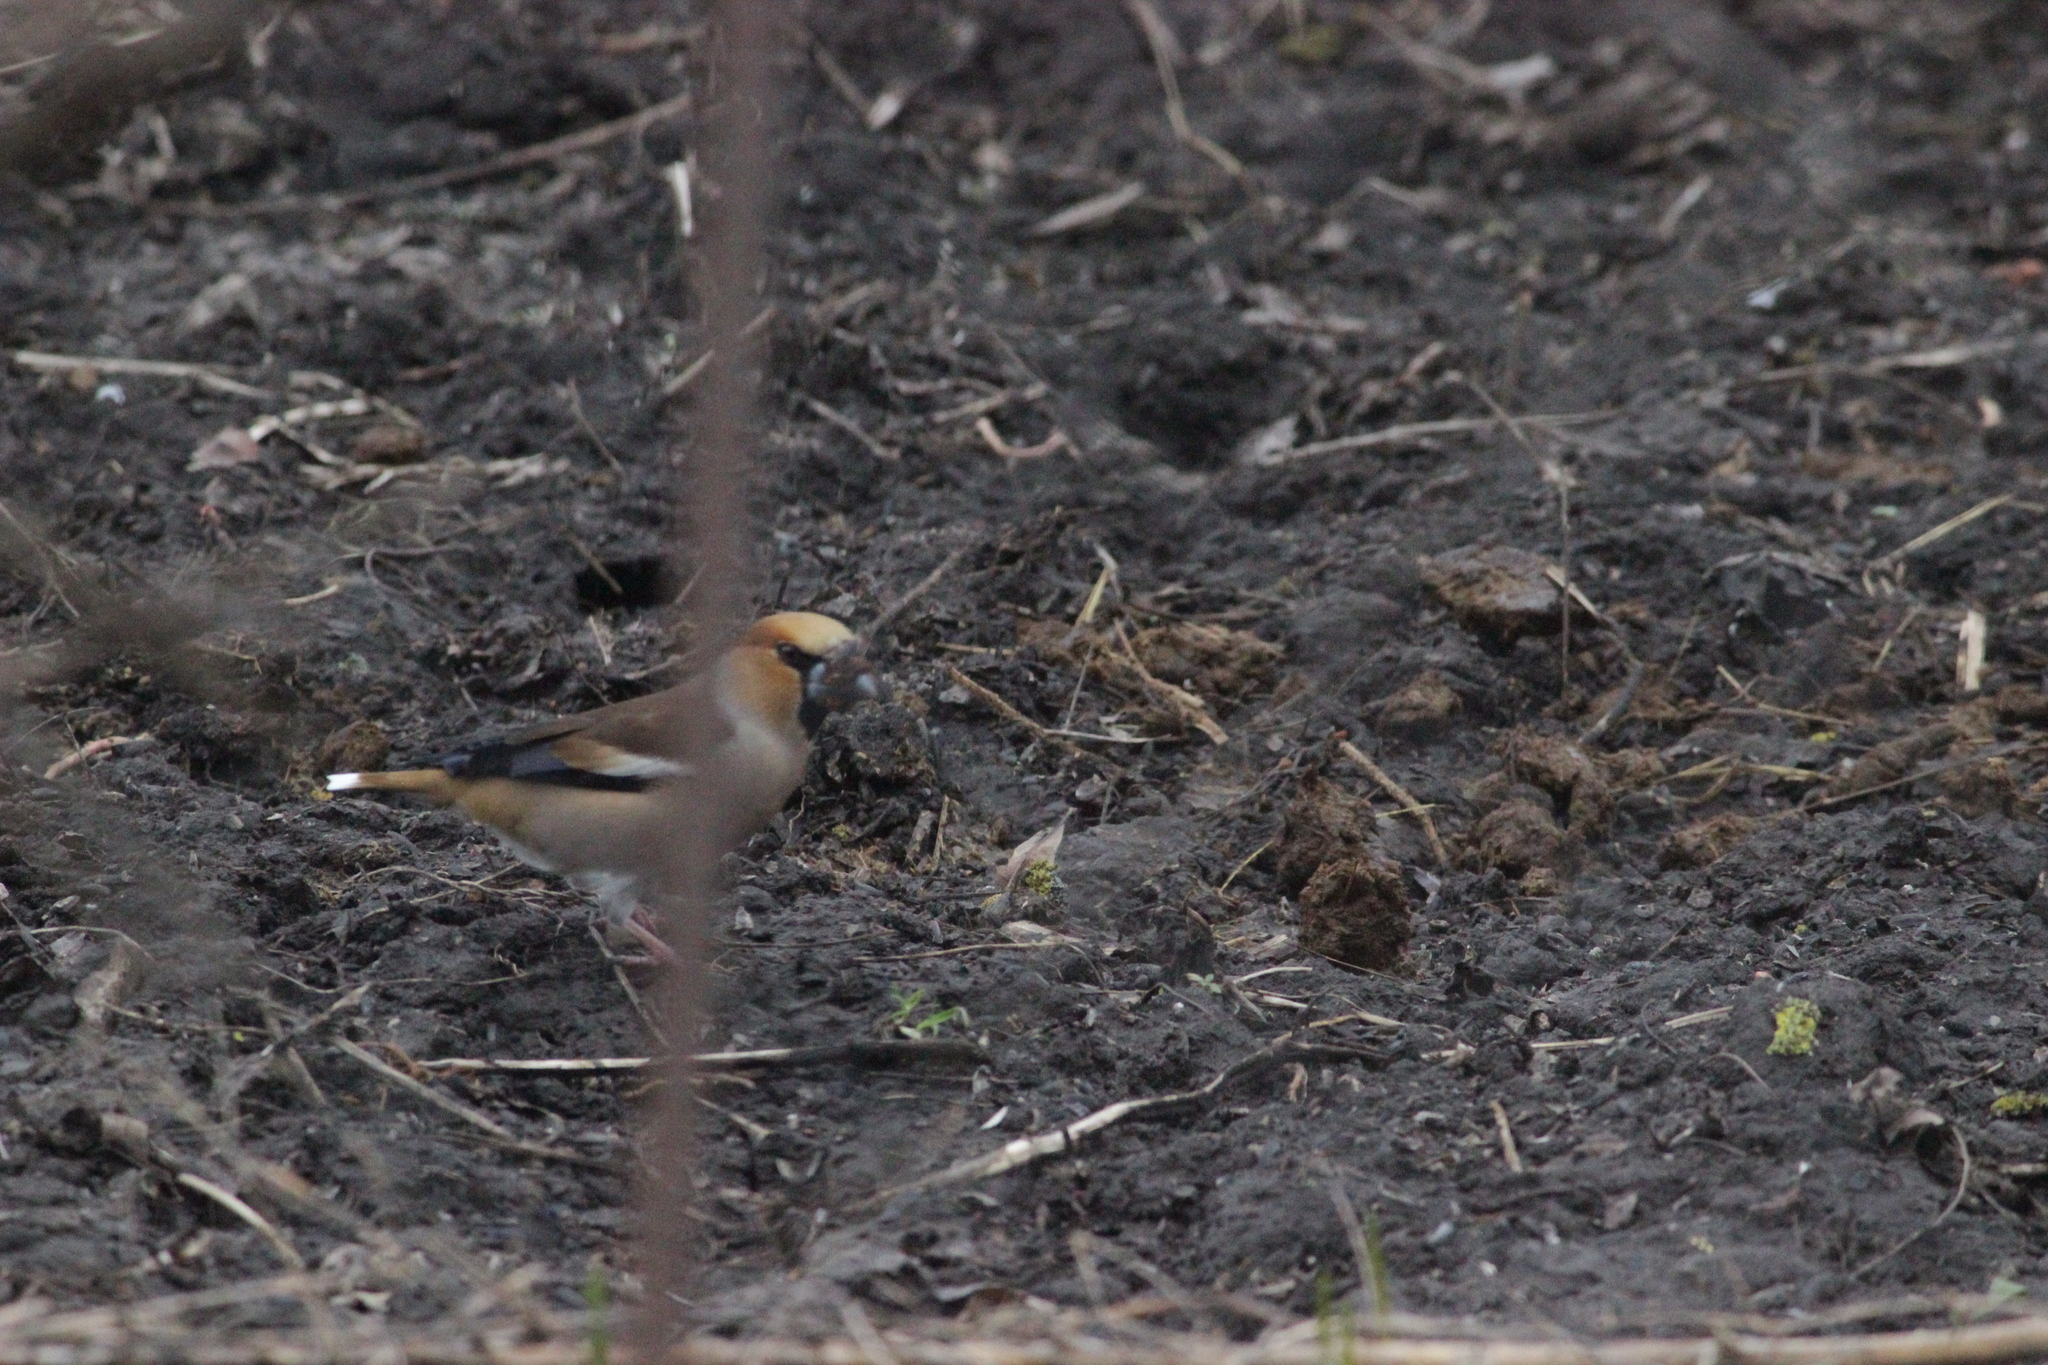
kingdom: Animalia
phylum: Chordata
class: Aves
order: Passeriformes
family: Fringillidae
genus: Coccothraustes
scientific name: Coccothraustes coccothraustes
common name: Hawfinch
